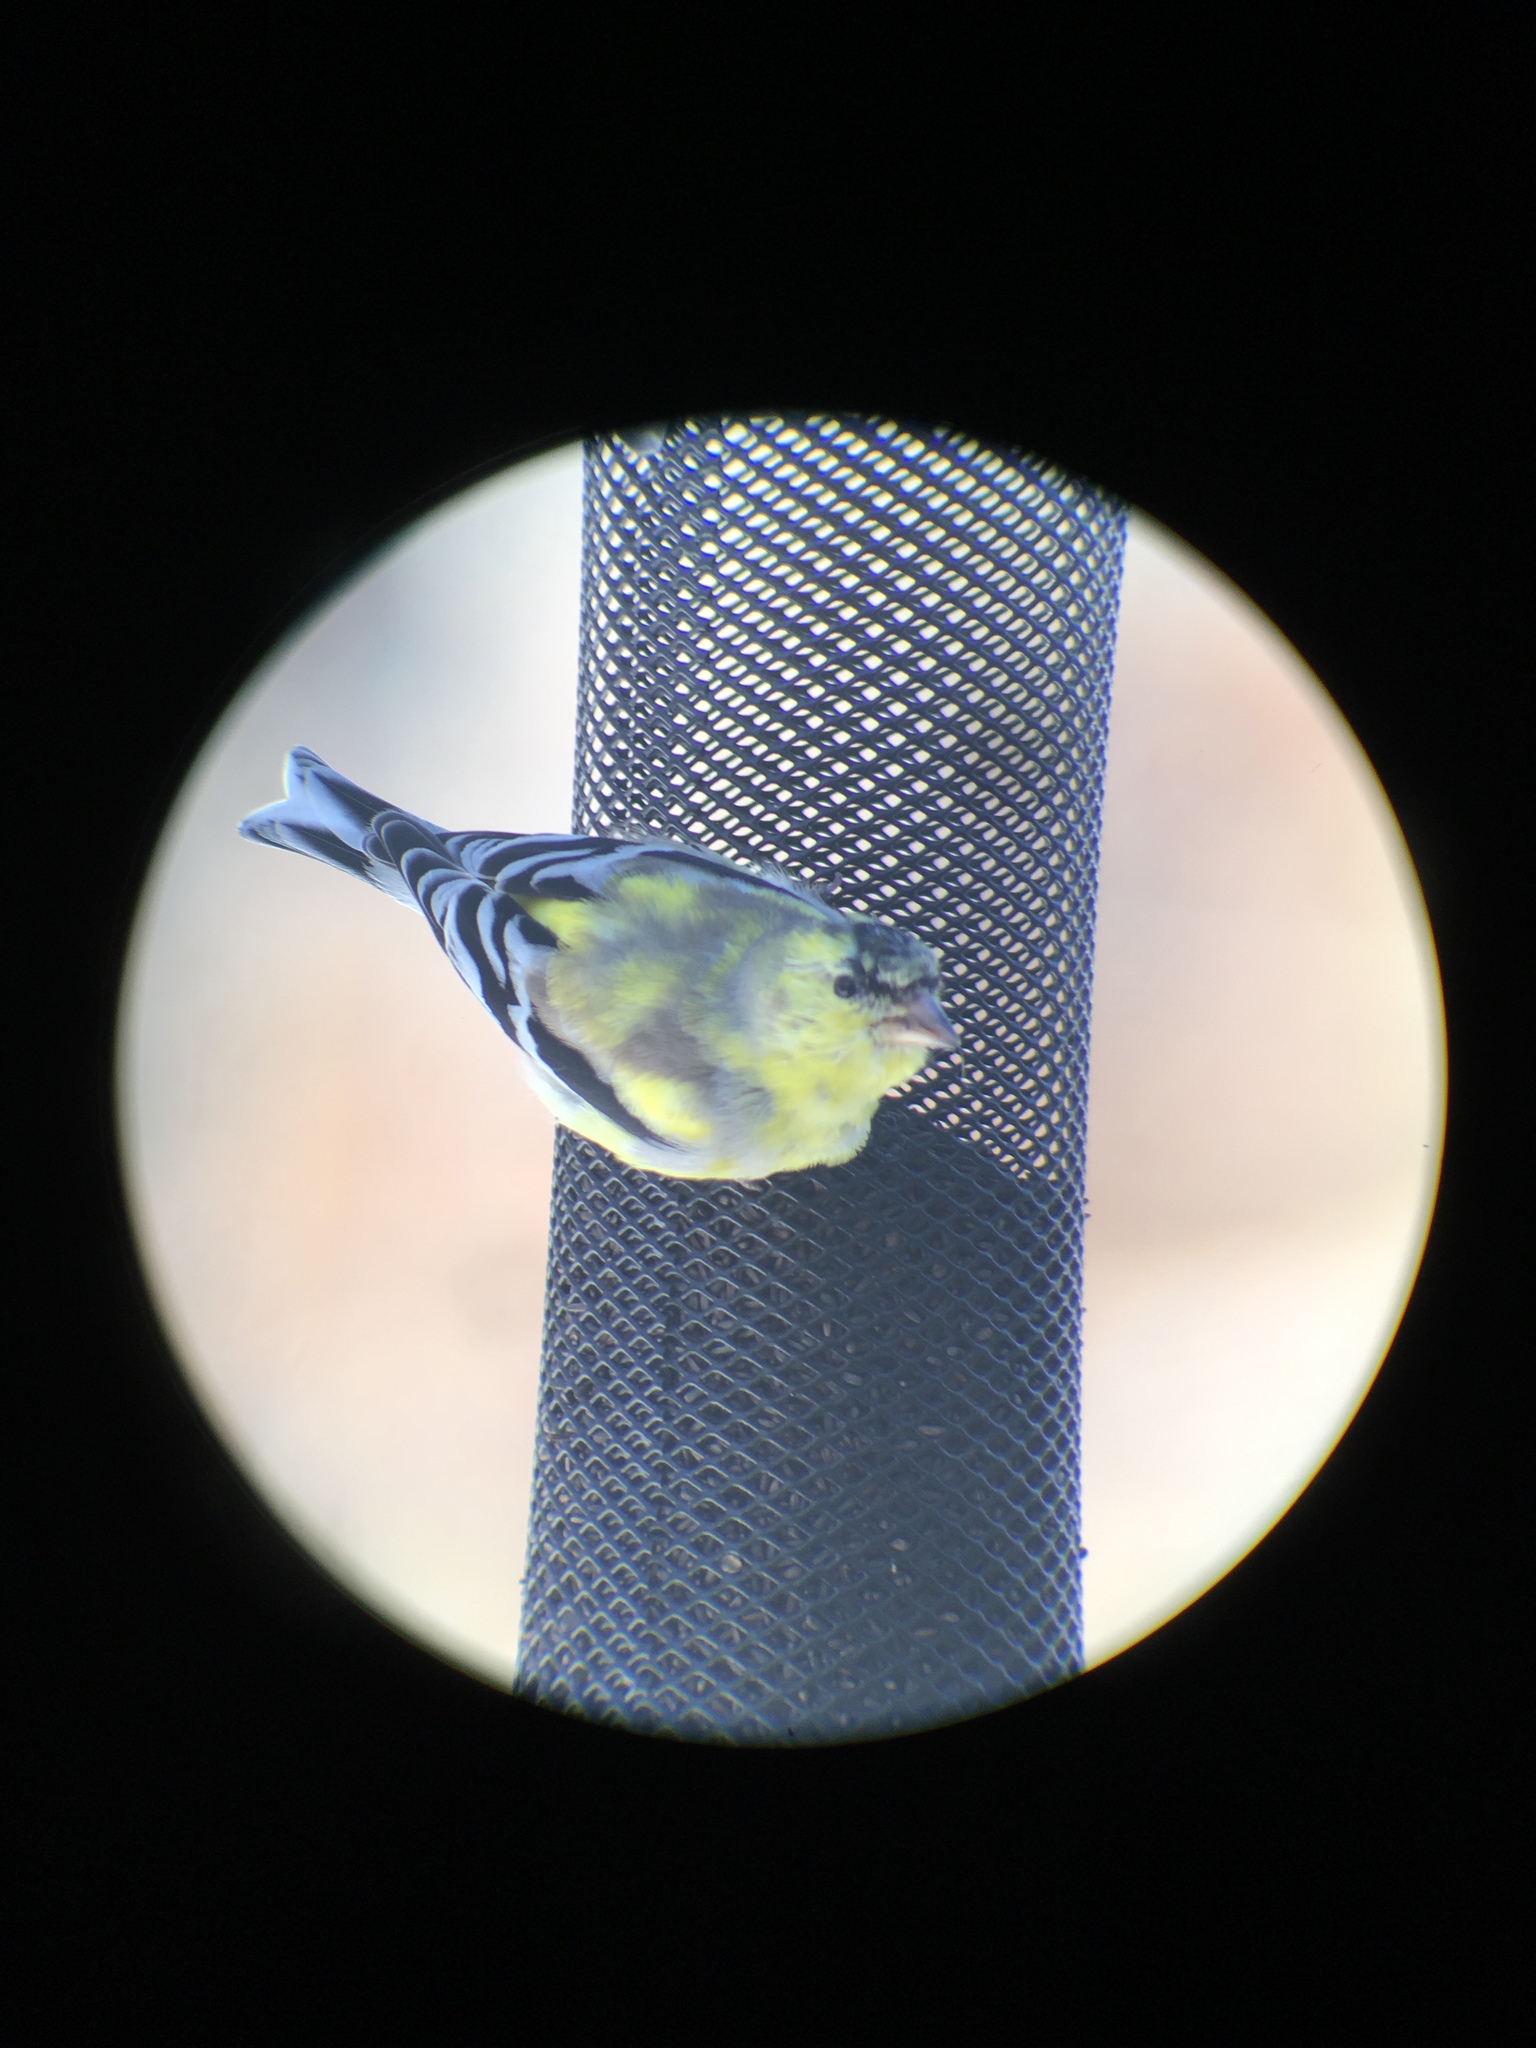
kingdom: Animalia
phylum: Chordata
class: Aves
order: Passeriformes
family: Fringillidae
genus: Spinus
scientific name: Spinus tristis
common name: American goldfinch
